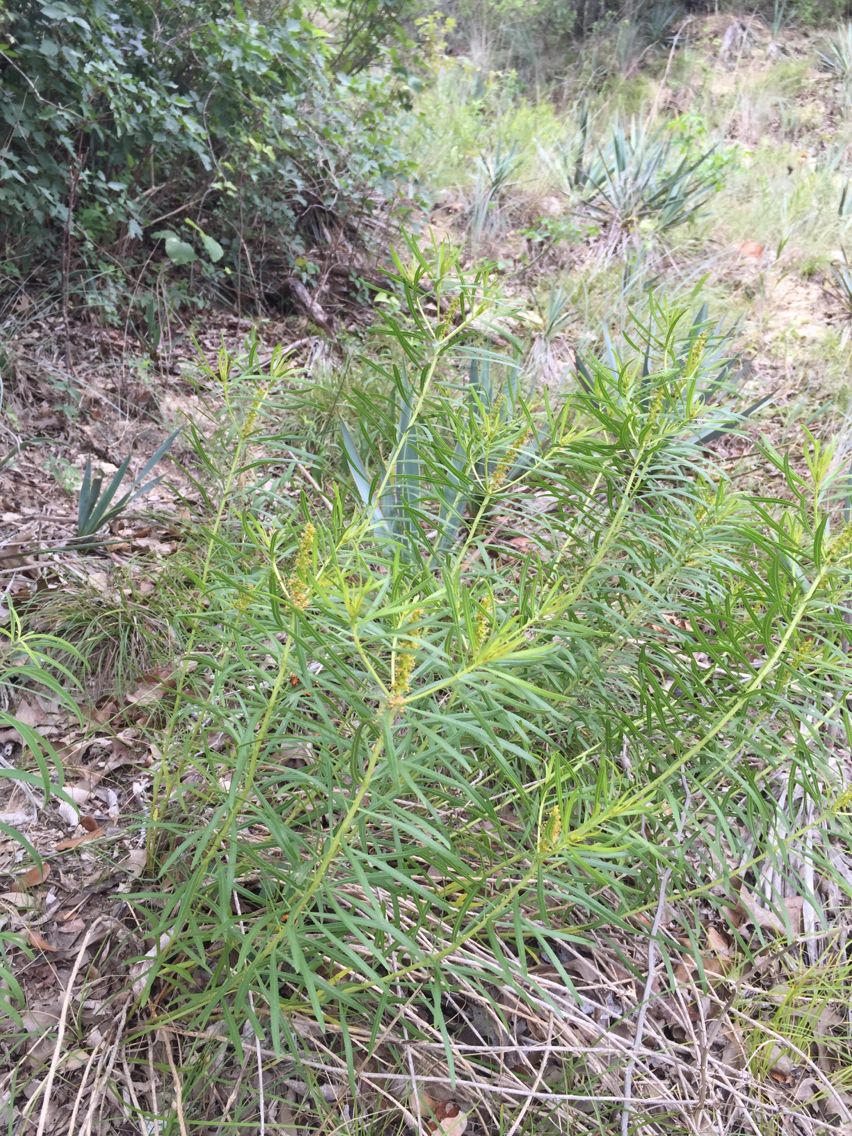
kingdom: Plantae
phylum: Tracheophyta
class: Magnoliopsida
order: Malpighiales
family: Euphorbiaceae
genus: Stillingia
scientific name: Stillingia texana
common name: Texas stillingia
